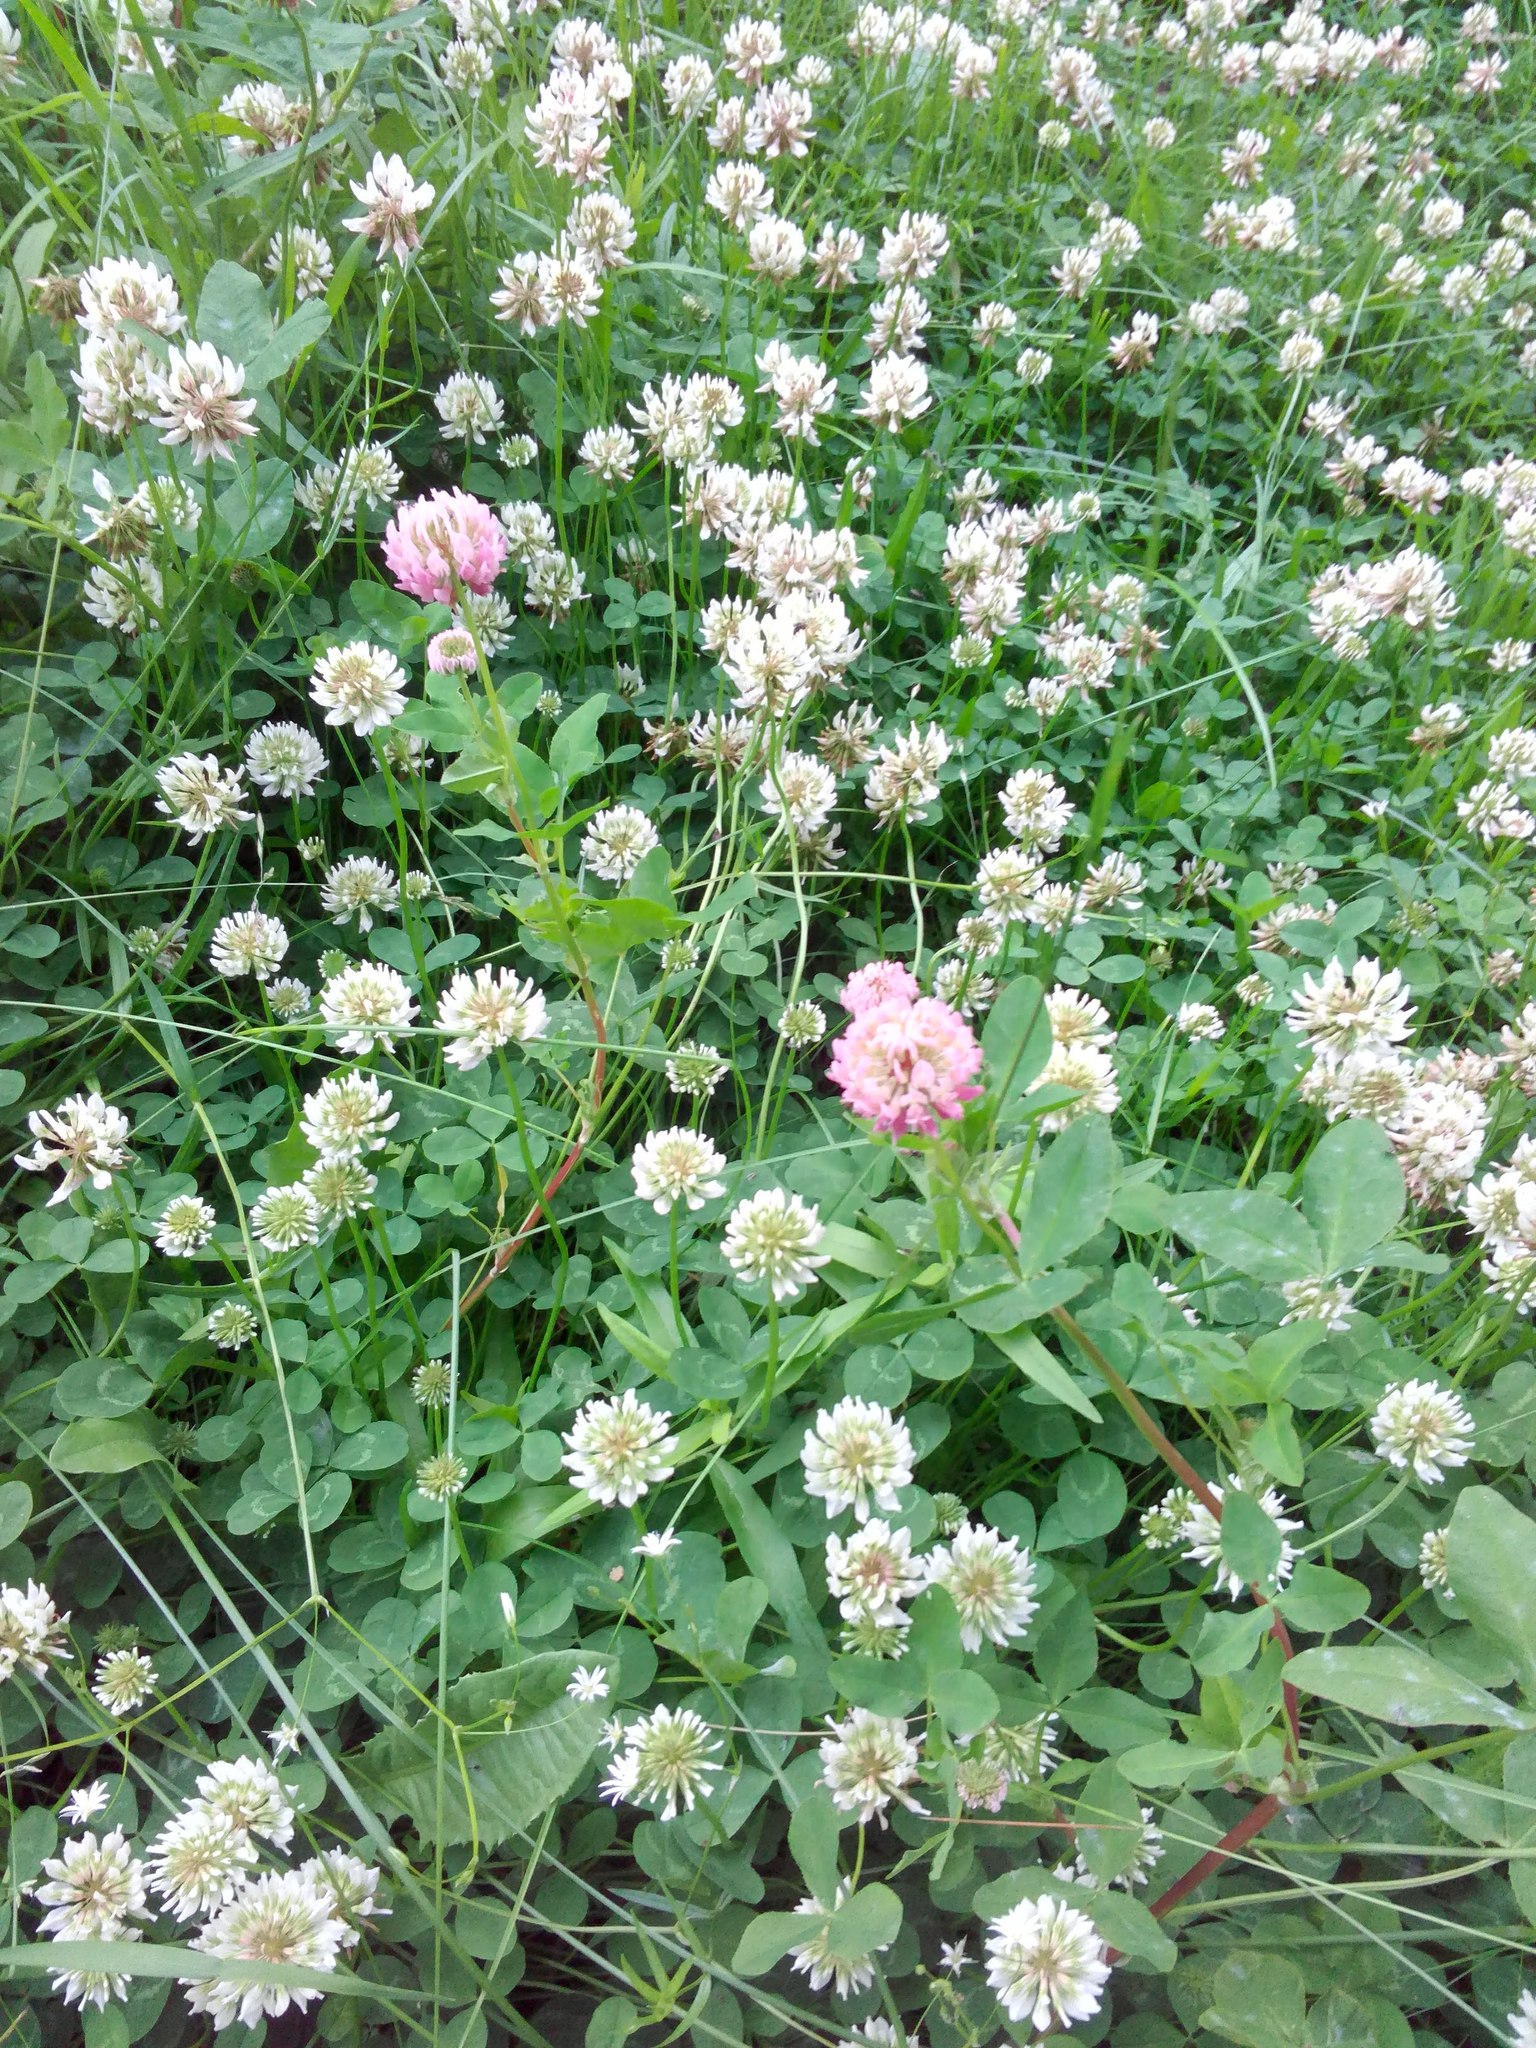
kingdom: Plantae
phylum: Tracheophyta
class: Magnoliopsida
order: Fabales
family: Fabaceae
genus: Trifolium
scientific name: Trifolium repens
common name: White clover
